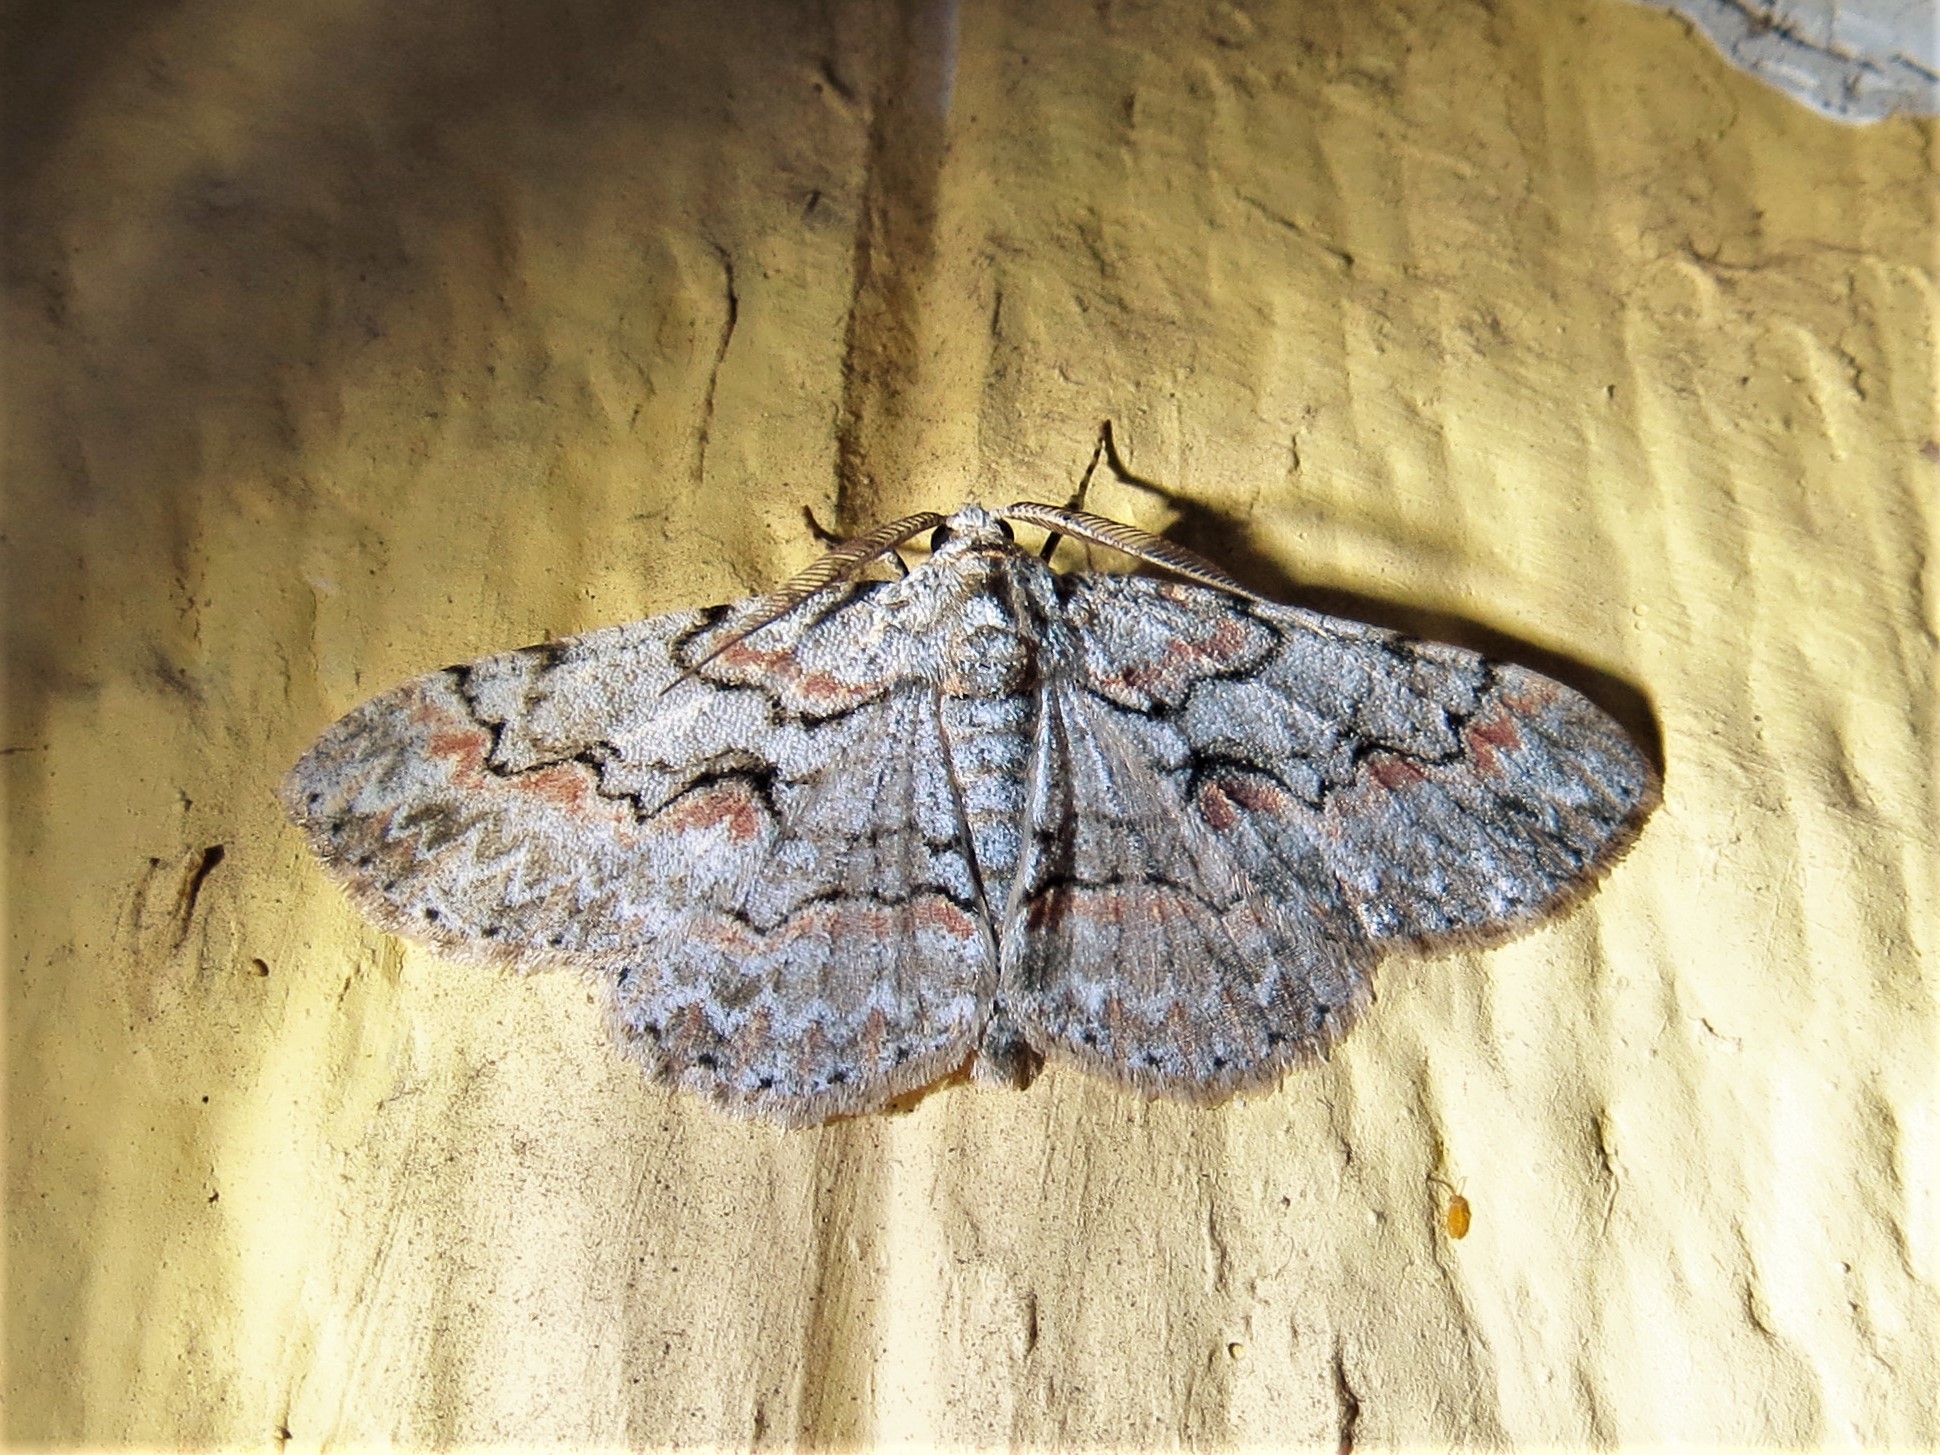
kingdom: Animalia
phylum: Arthropoda
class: Insecta
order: Lepidoptera
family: Geometridae
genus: Iridopsis
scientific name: Iridopsis defectaria
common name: Brown-shaded gray
